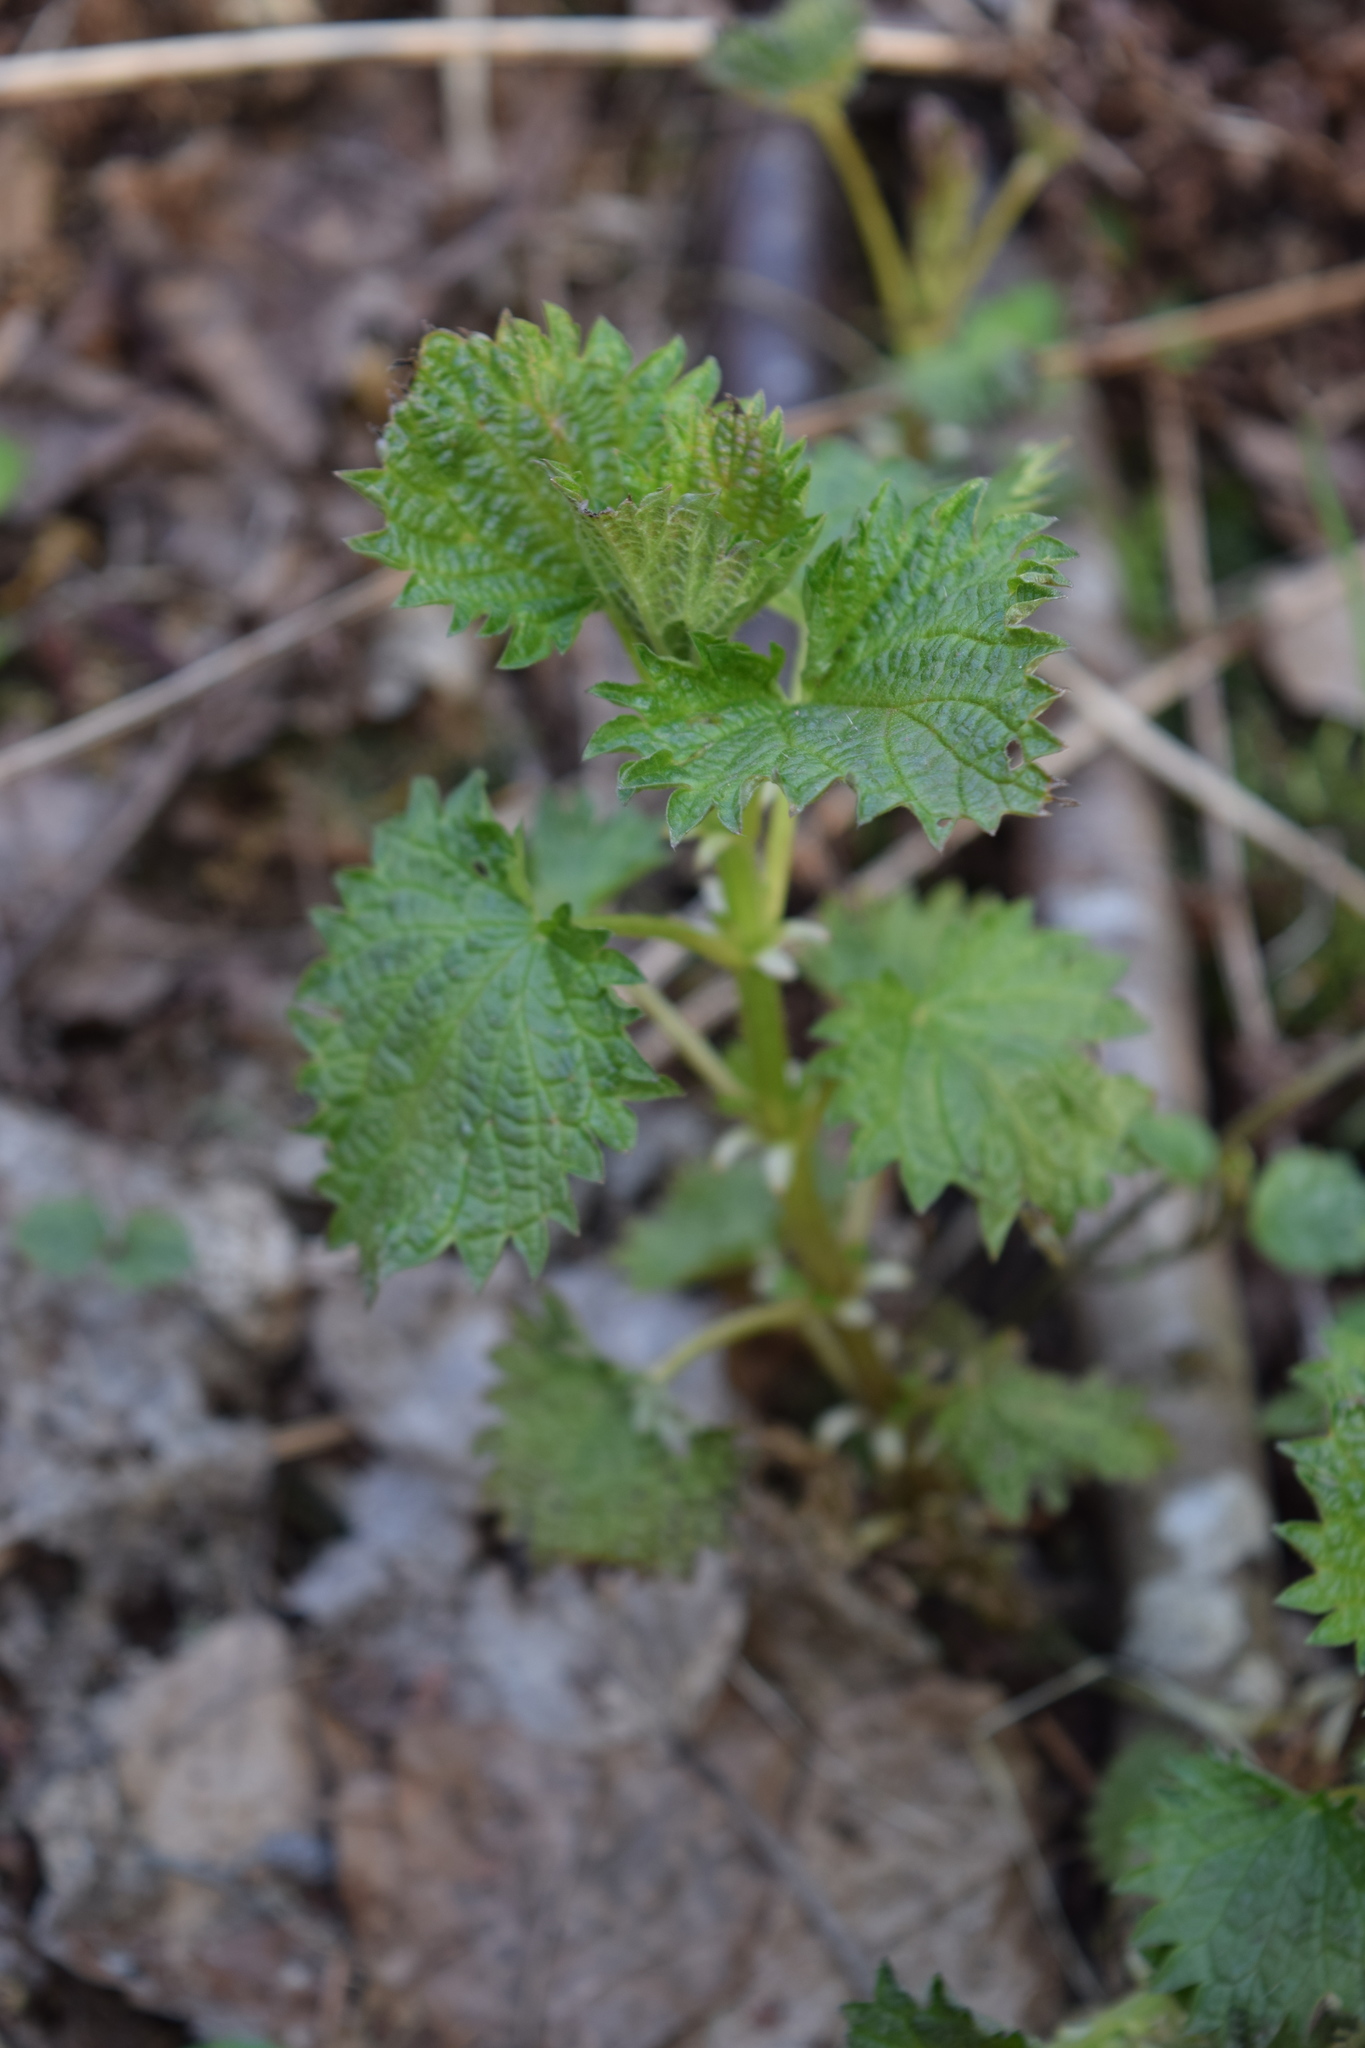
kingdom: Plantae
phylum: Tracheophyta
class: Magnoliopsida
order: Rosales
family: Urticaceae
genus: Urtica
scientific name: Urtica dioica
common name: Common nettle
